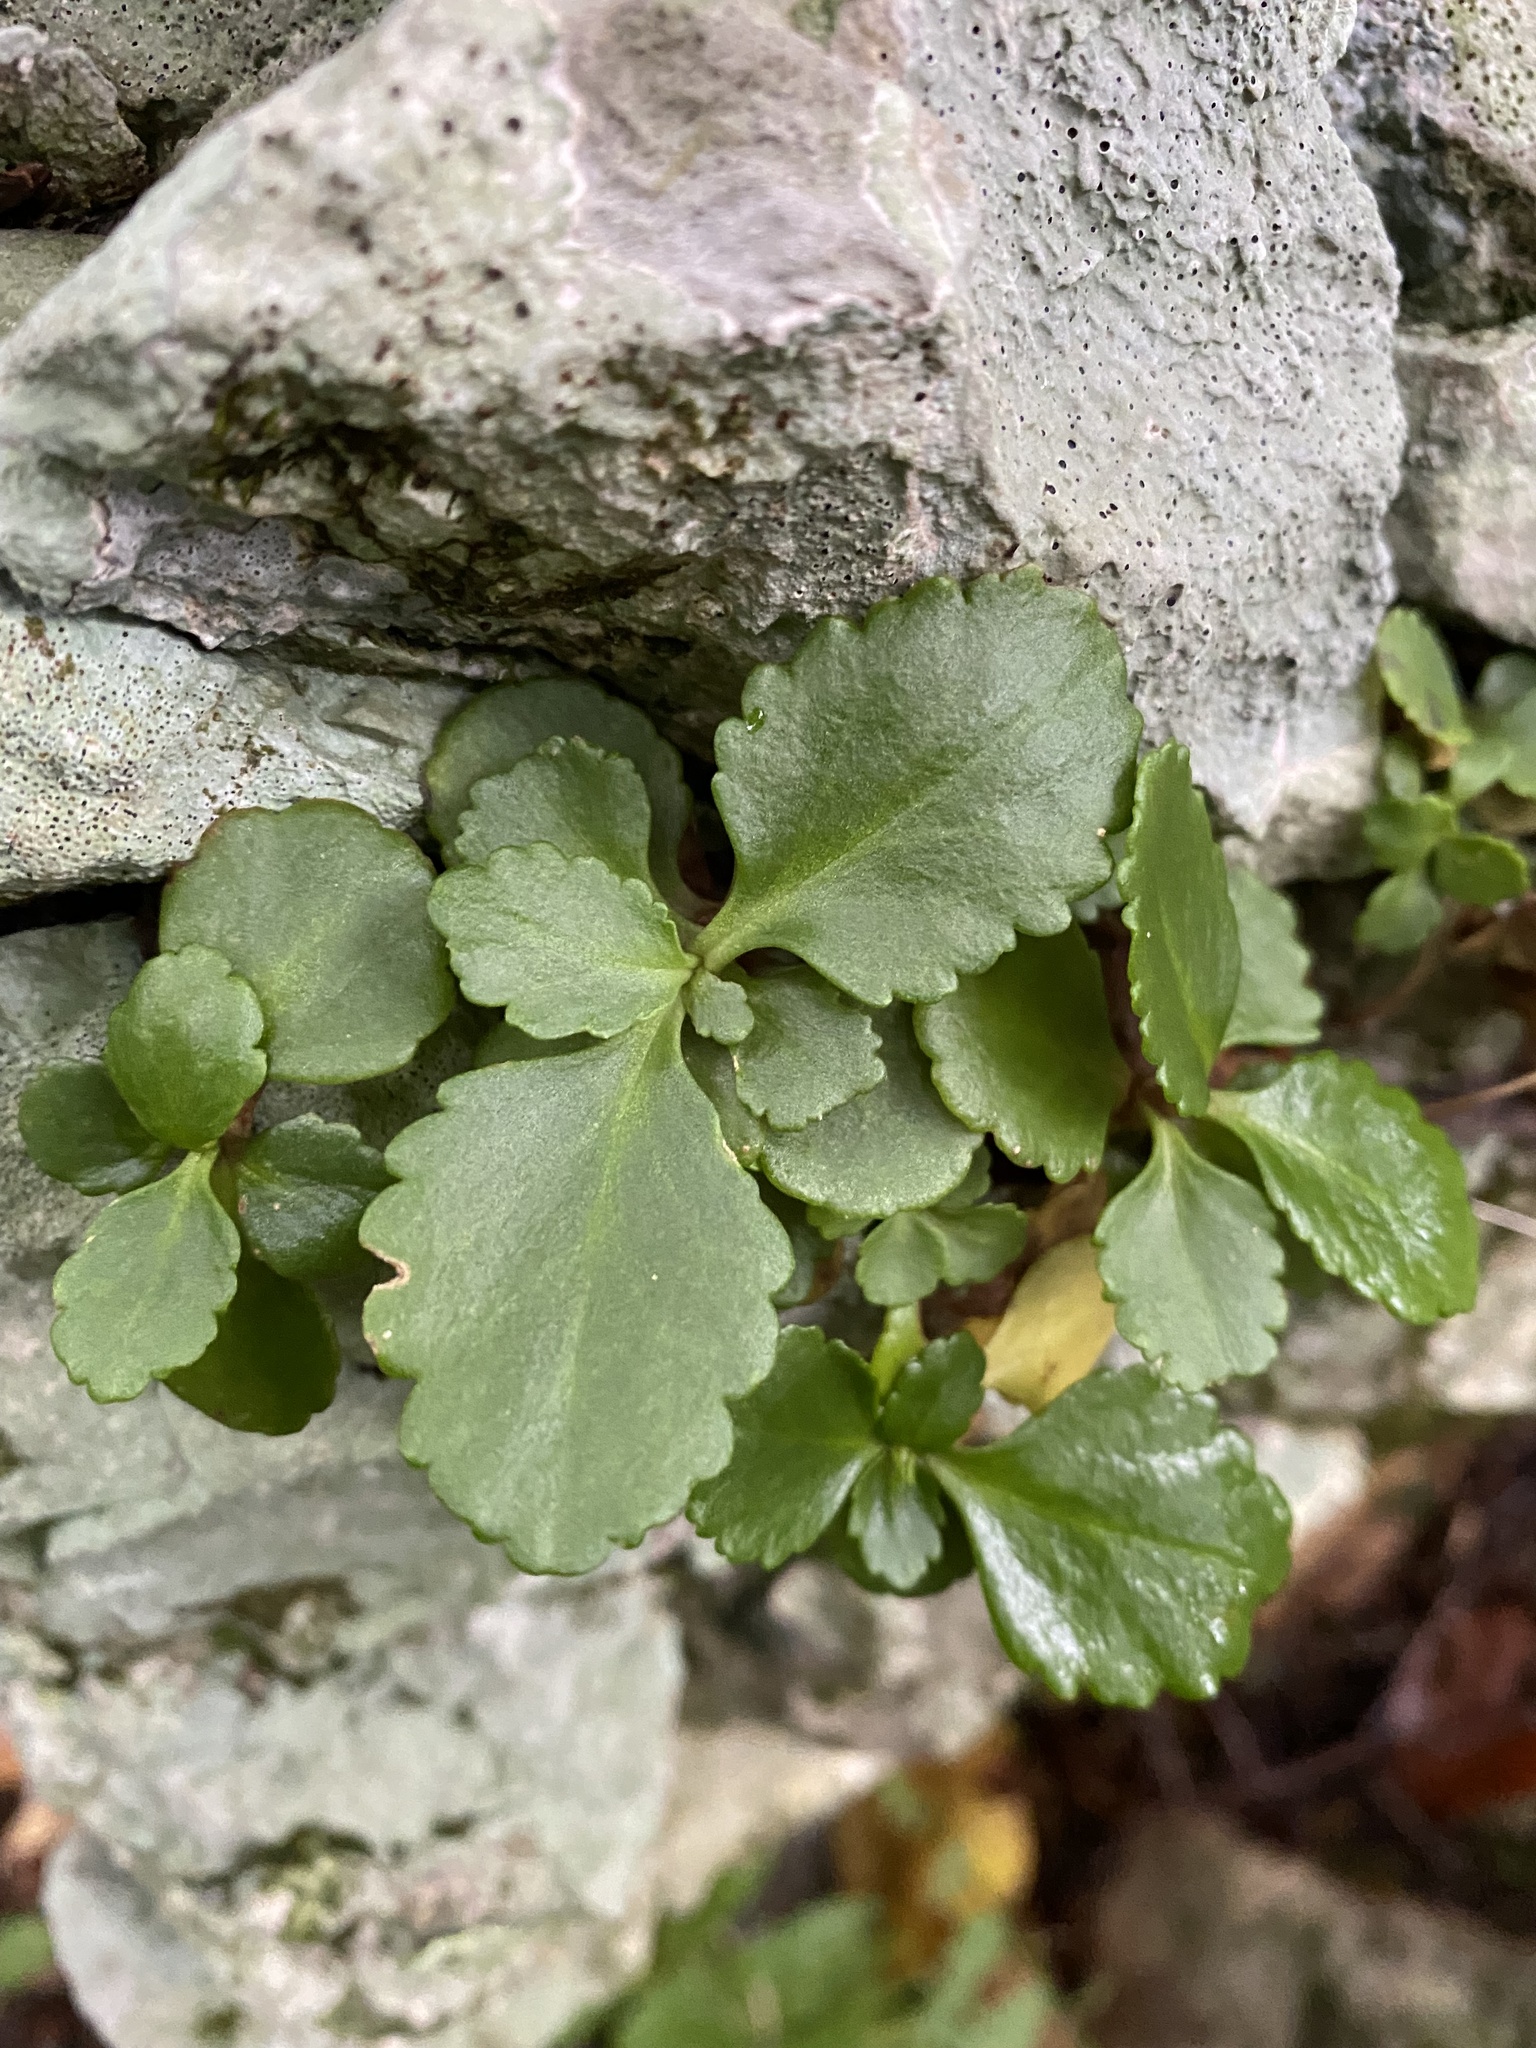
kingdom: Plantae
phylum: Tracheophyta
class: Magnoliopsida
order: Saxifragales
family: Crassulaceae
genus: Umbilicus
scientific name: Umbilicus oppositifolius
